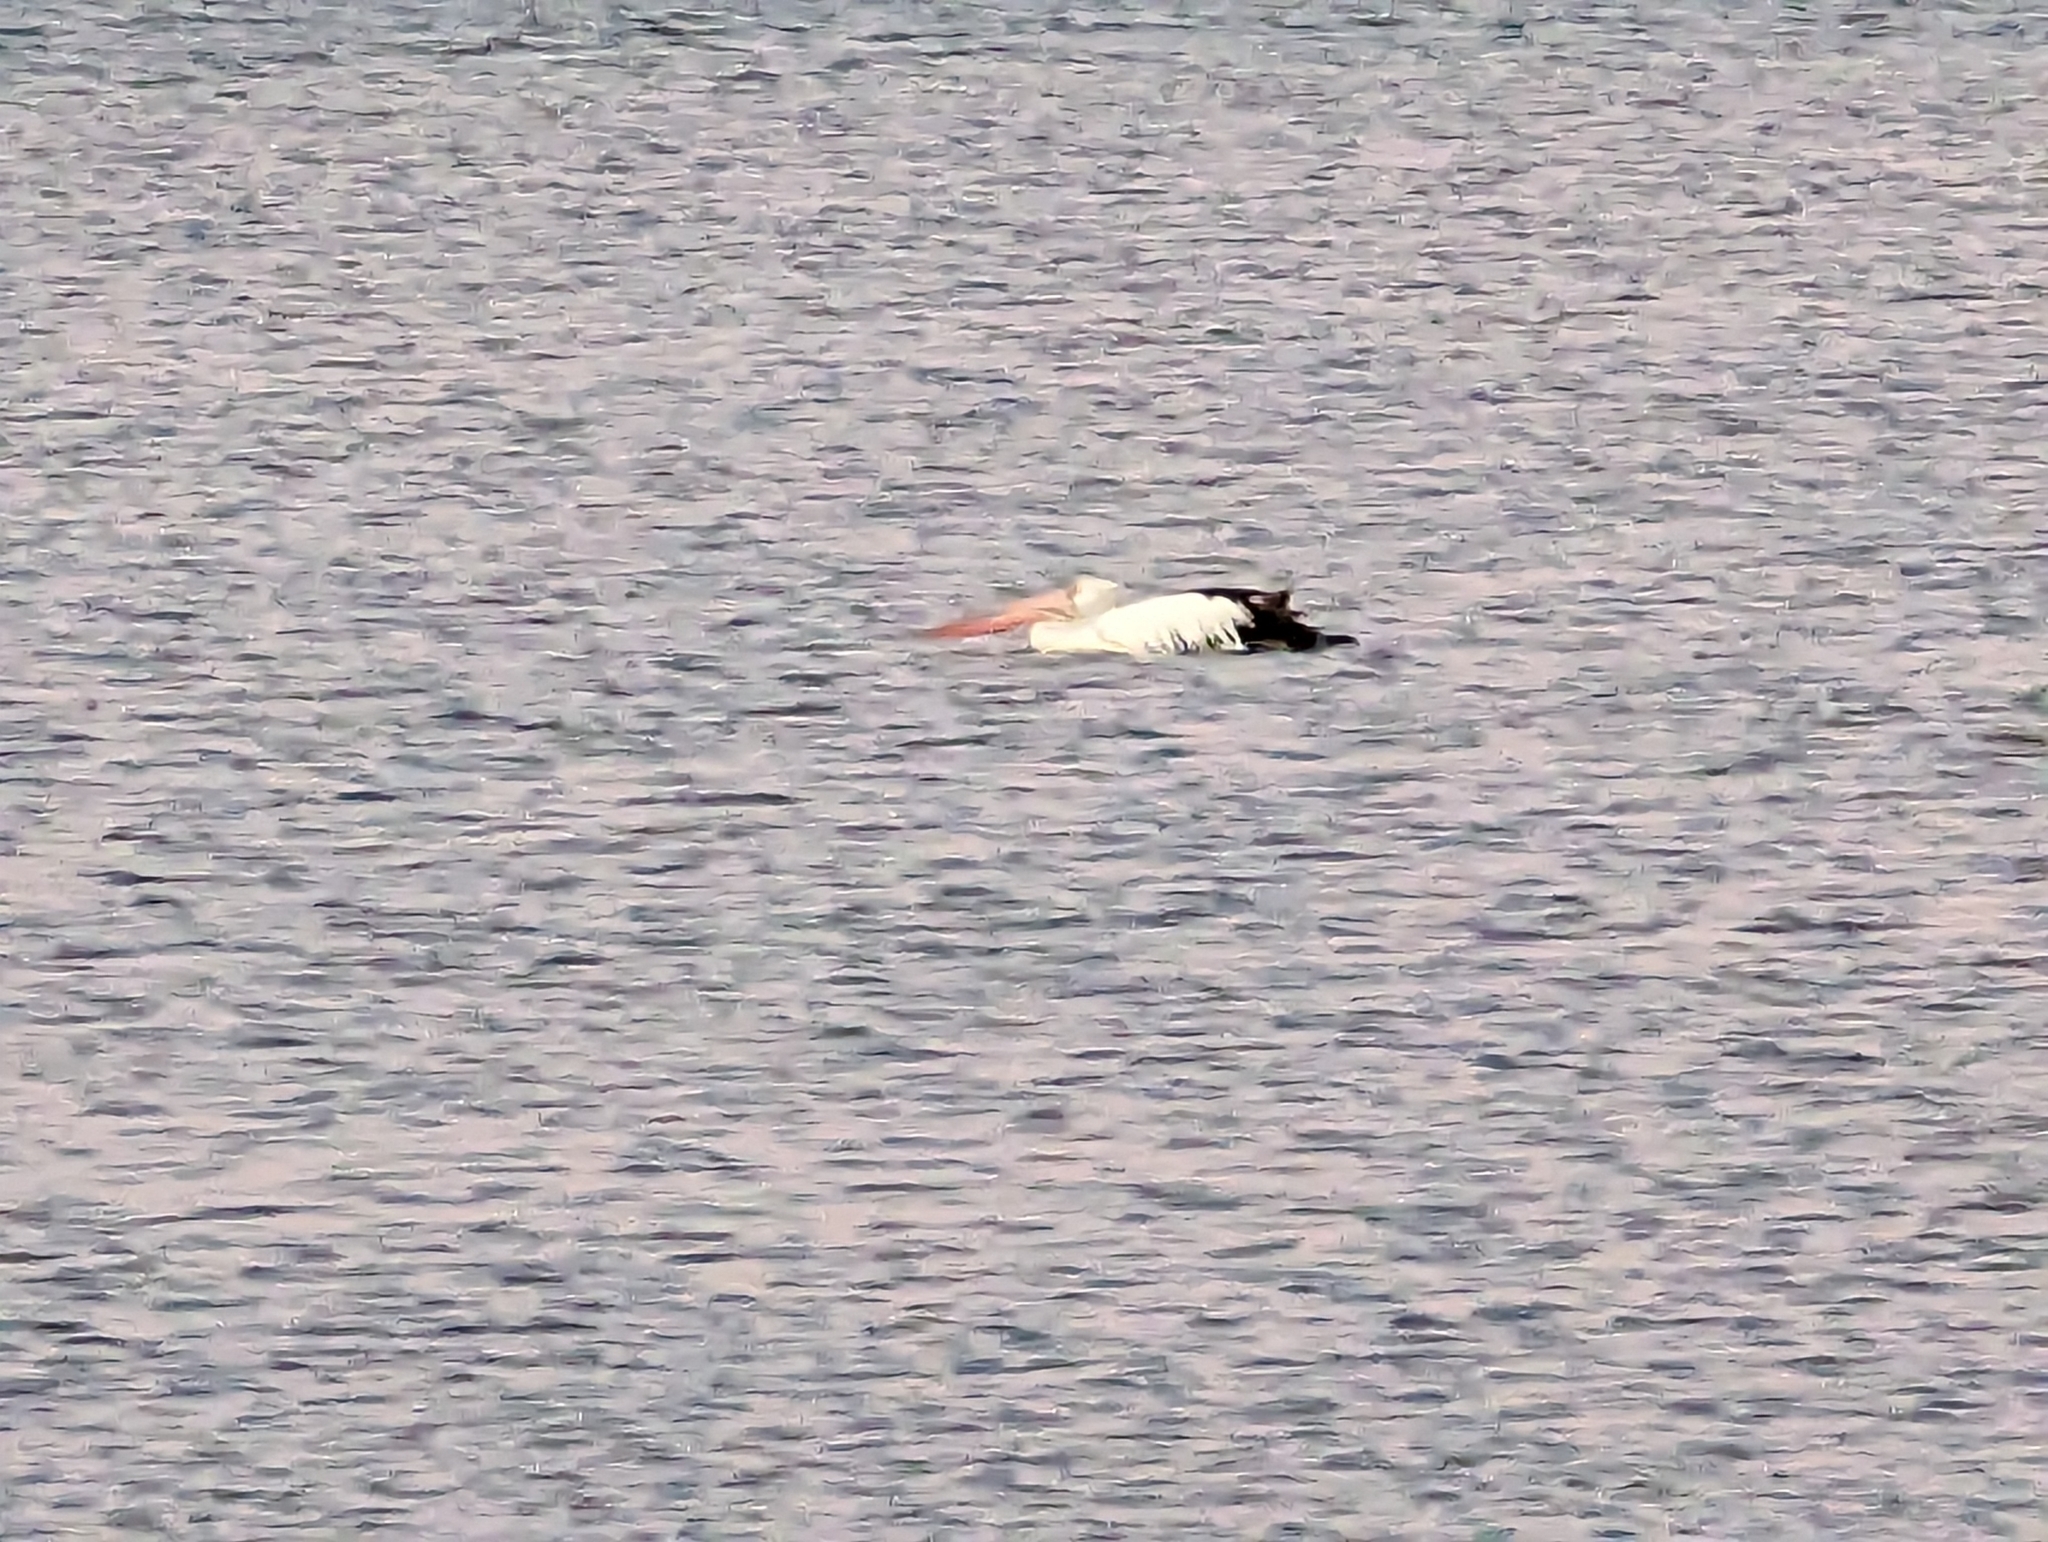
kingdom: Animalia
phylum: Chordata
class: Aves
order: Pelecaniformes
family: Pelecanidae
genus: Pelecanus
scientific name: Pelecanus conspicillatus
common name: Australian pelican
